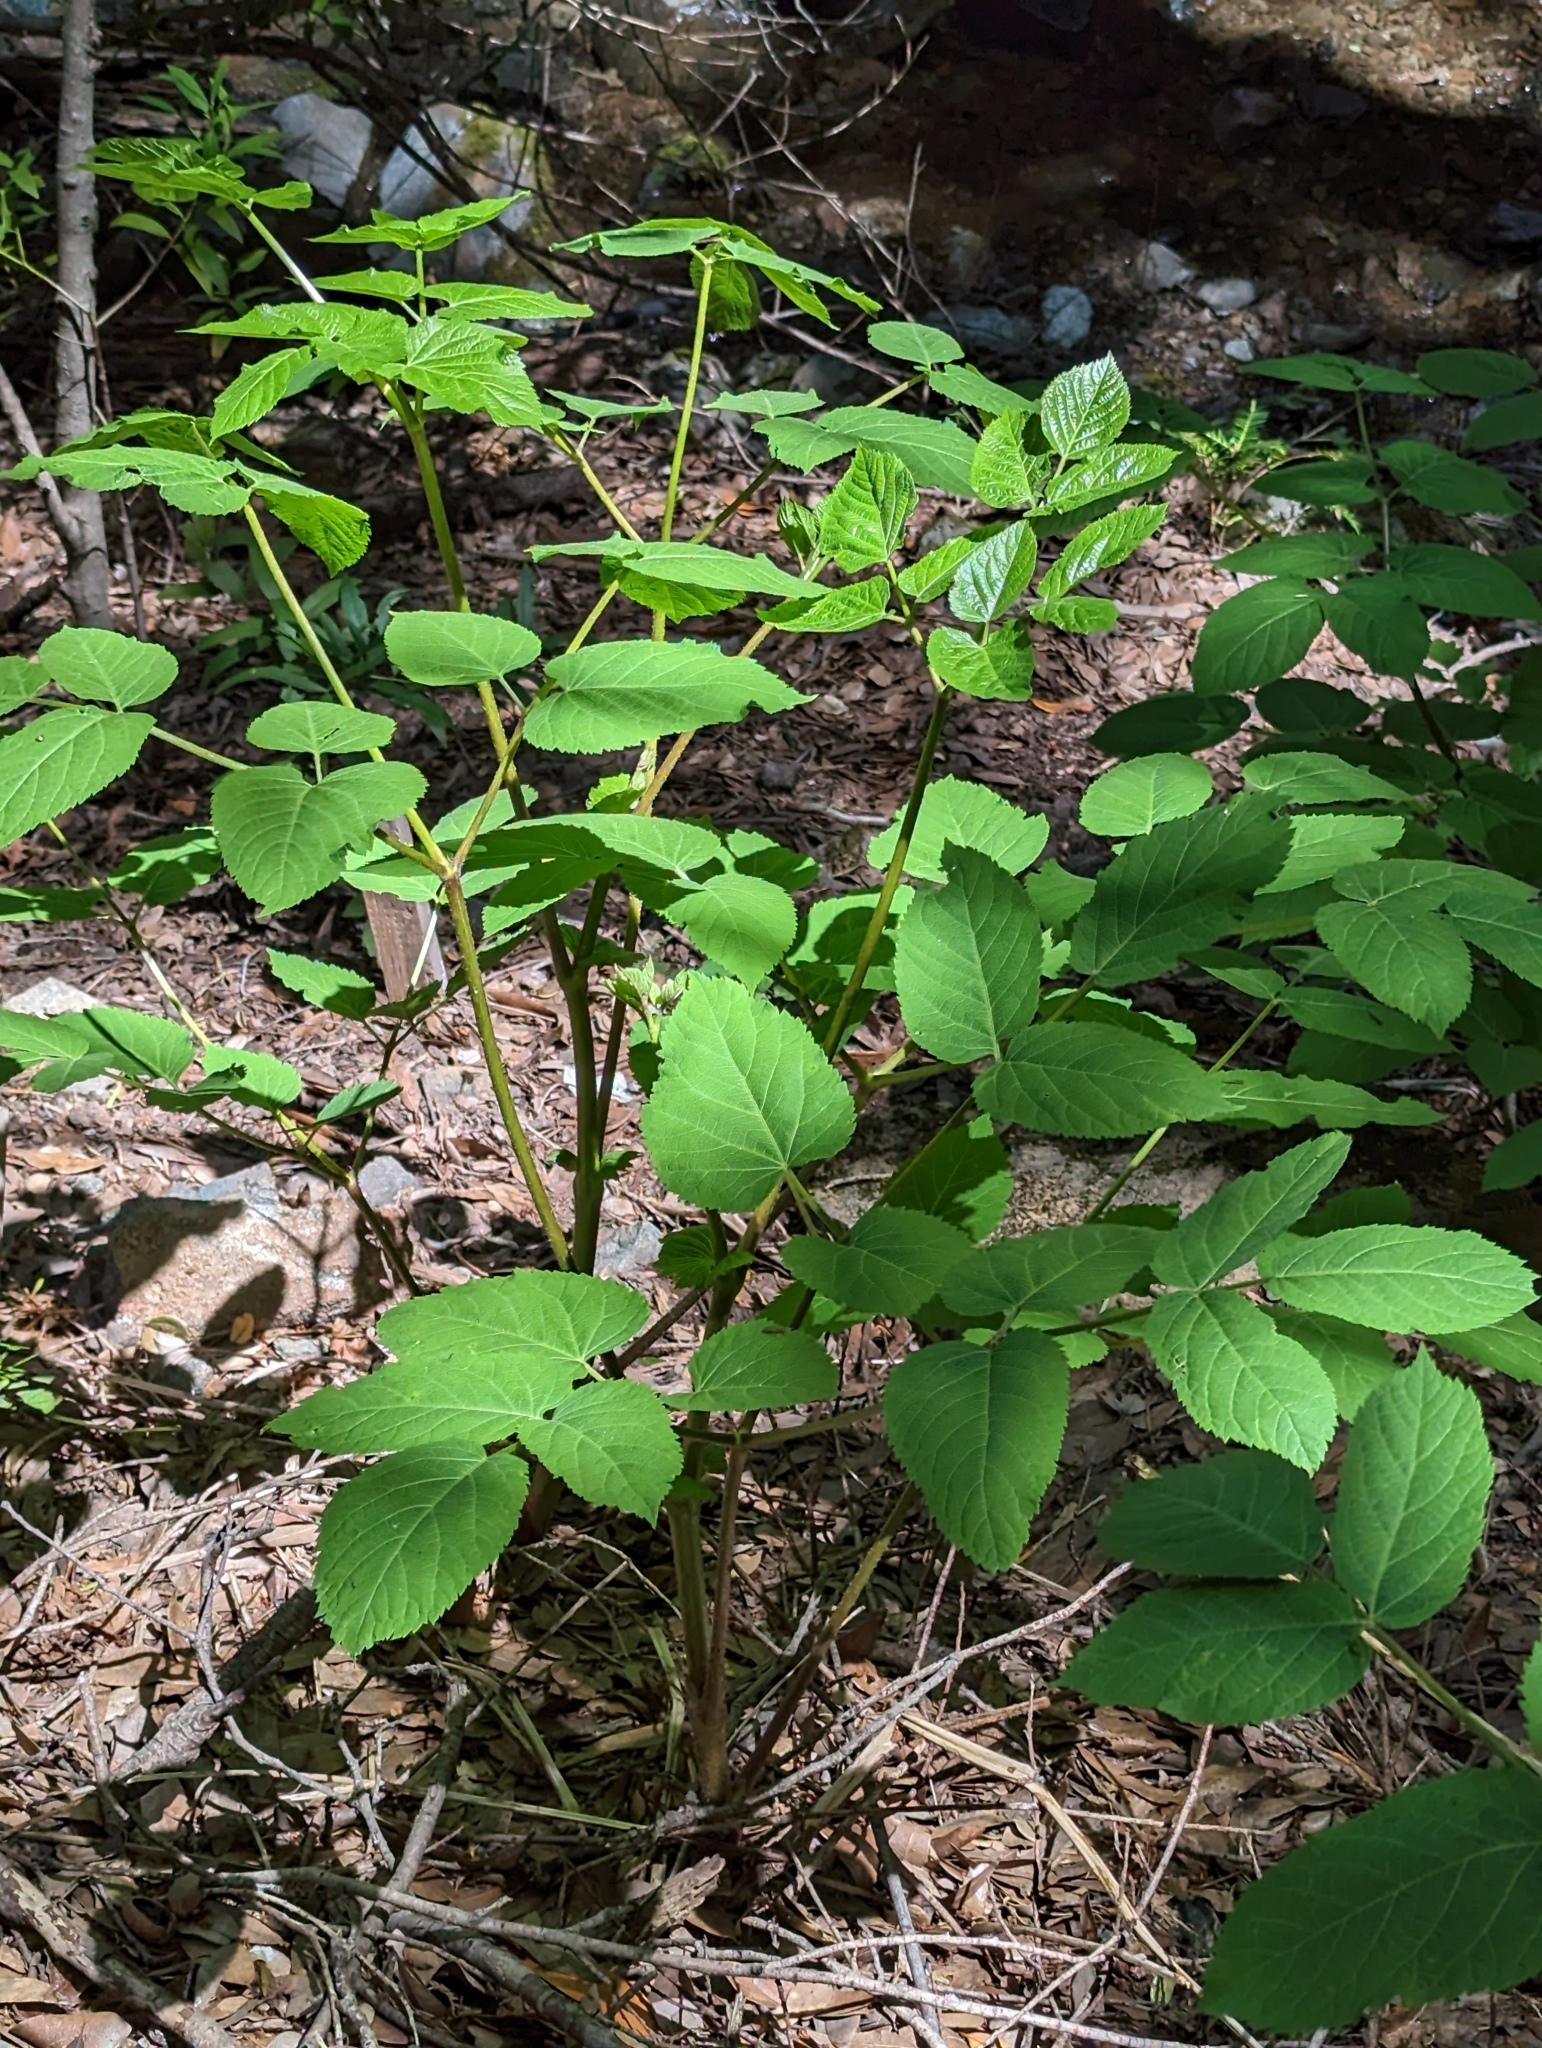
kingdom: Plantae
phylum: Tracheophyta
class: Magnoliopsida
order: Apiales
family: Araliaceae
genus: Aralia
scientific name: Aralia californica
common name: California-ginseng
